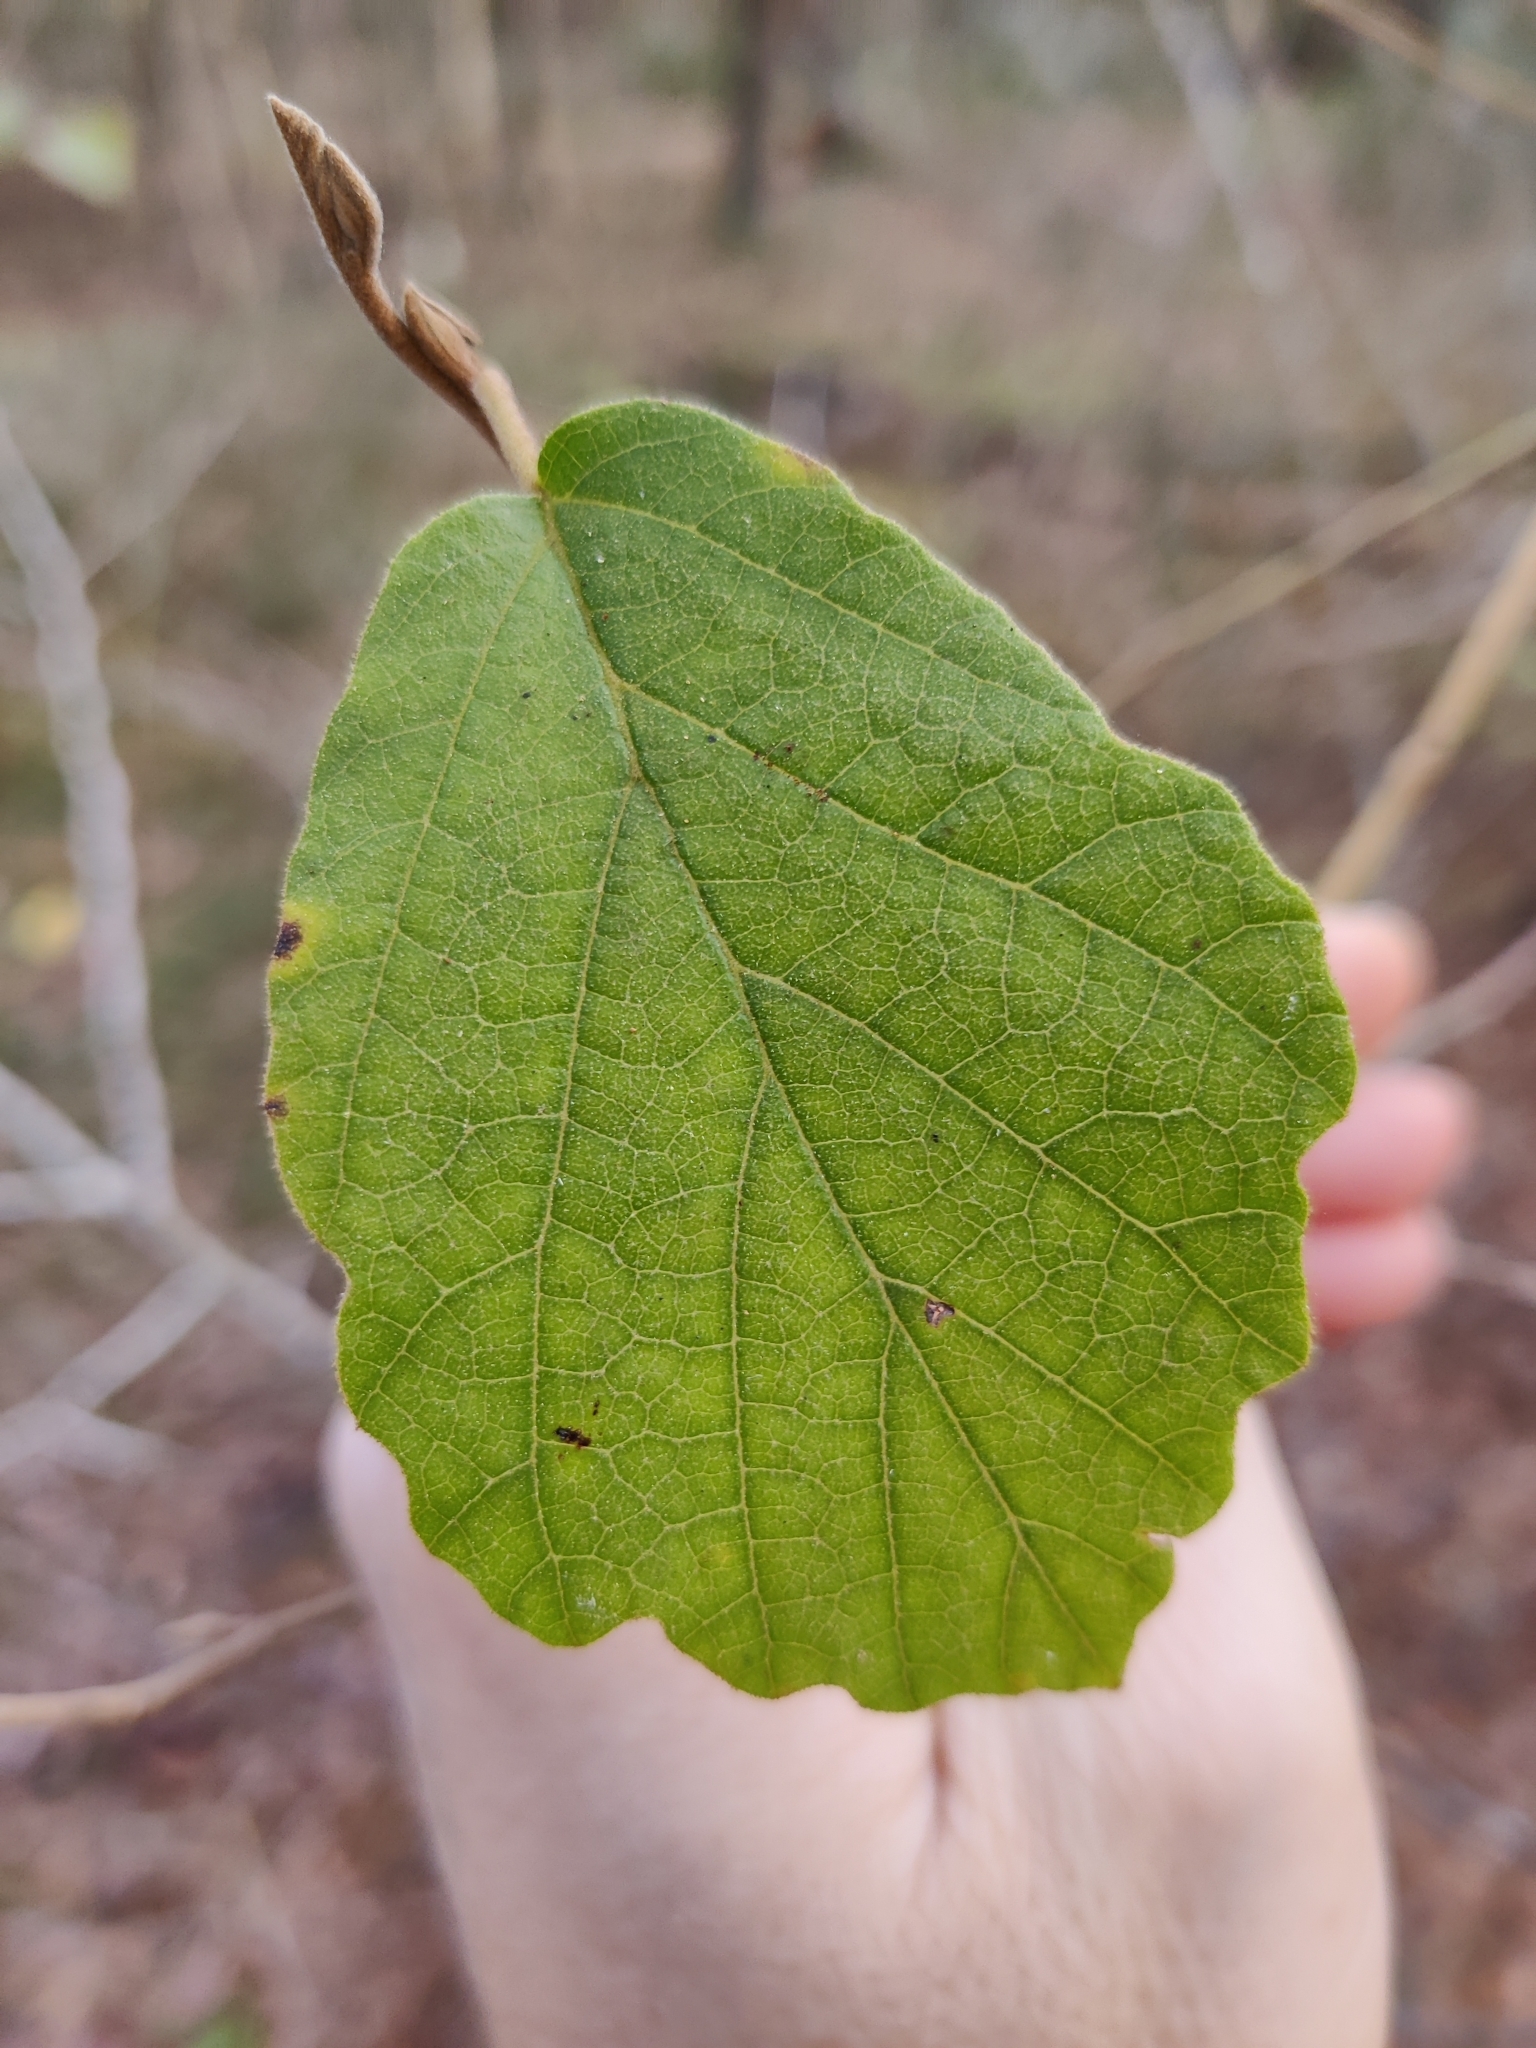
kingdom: Plantae
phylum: Tracheophyta
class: Magnoliopsida
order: Saxifragales
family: Hamamelidaceae
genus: Hamamelis
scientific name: Hamamelis virginiana
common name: Witch-hazel
